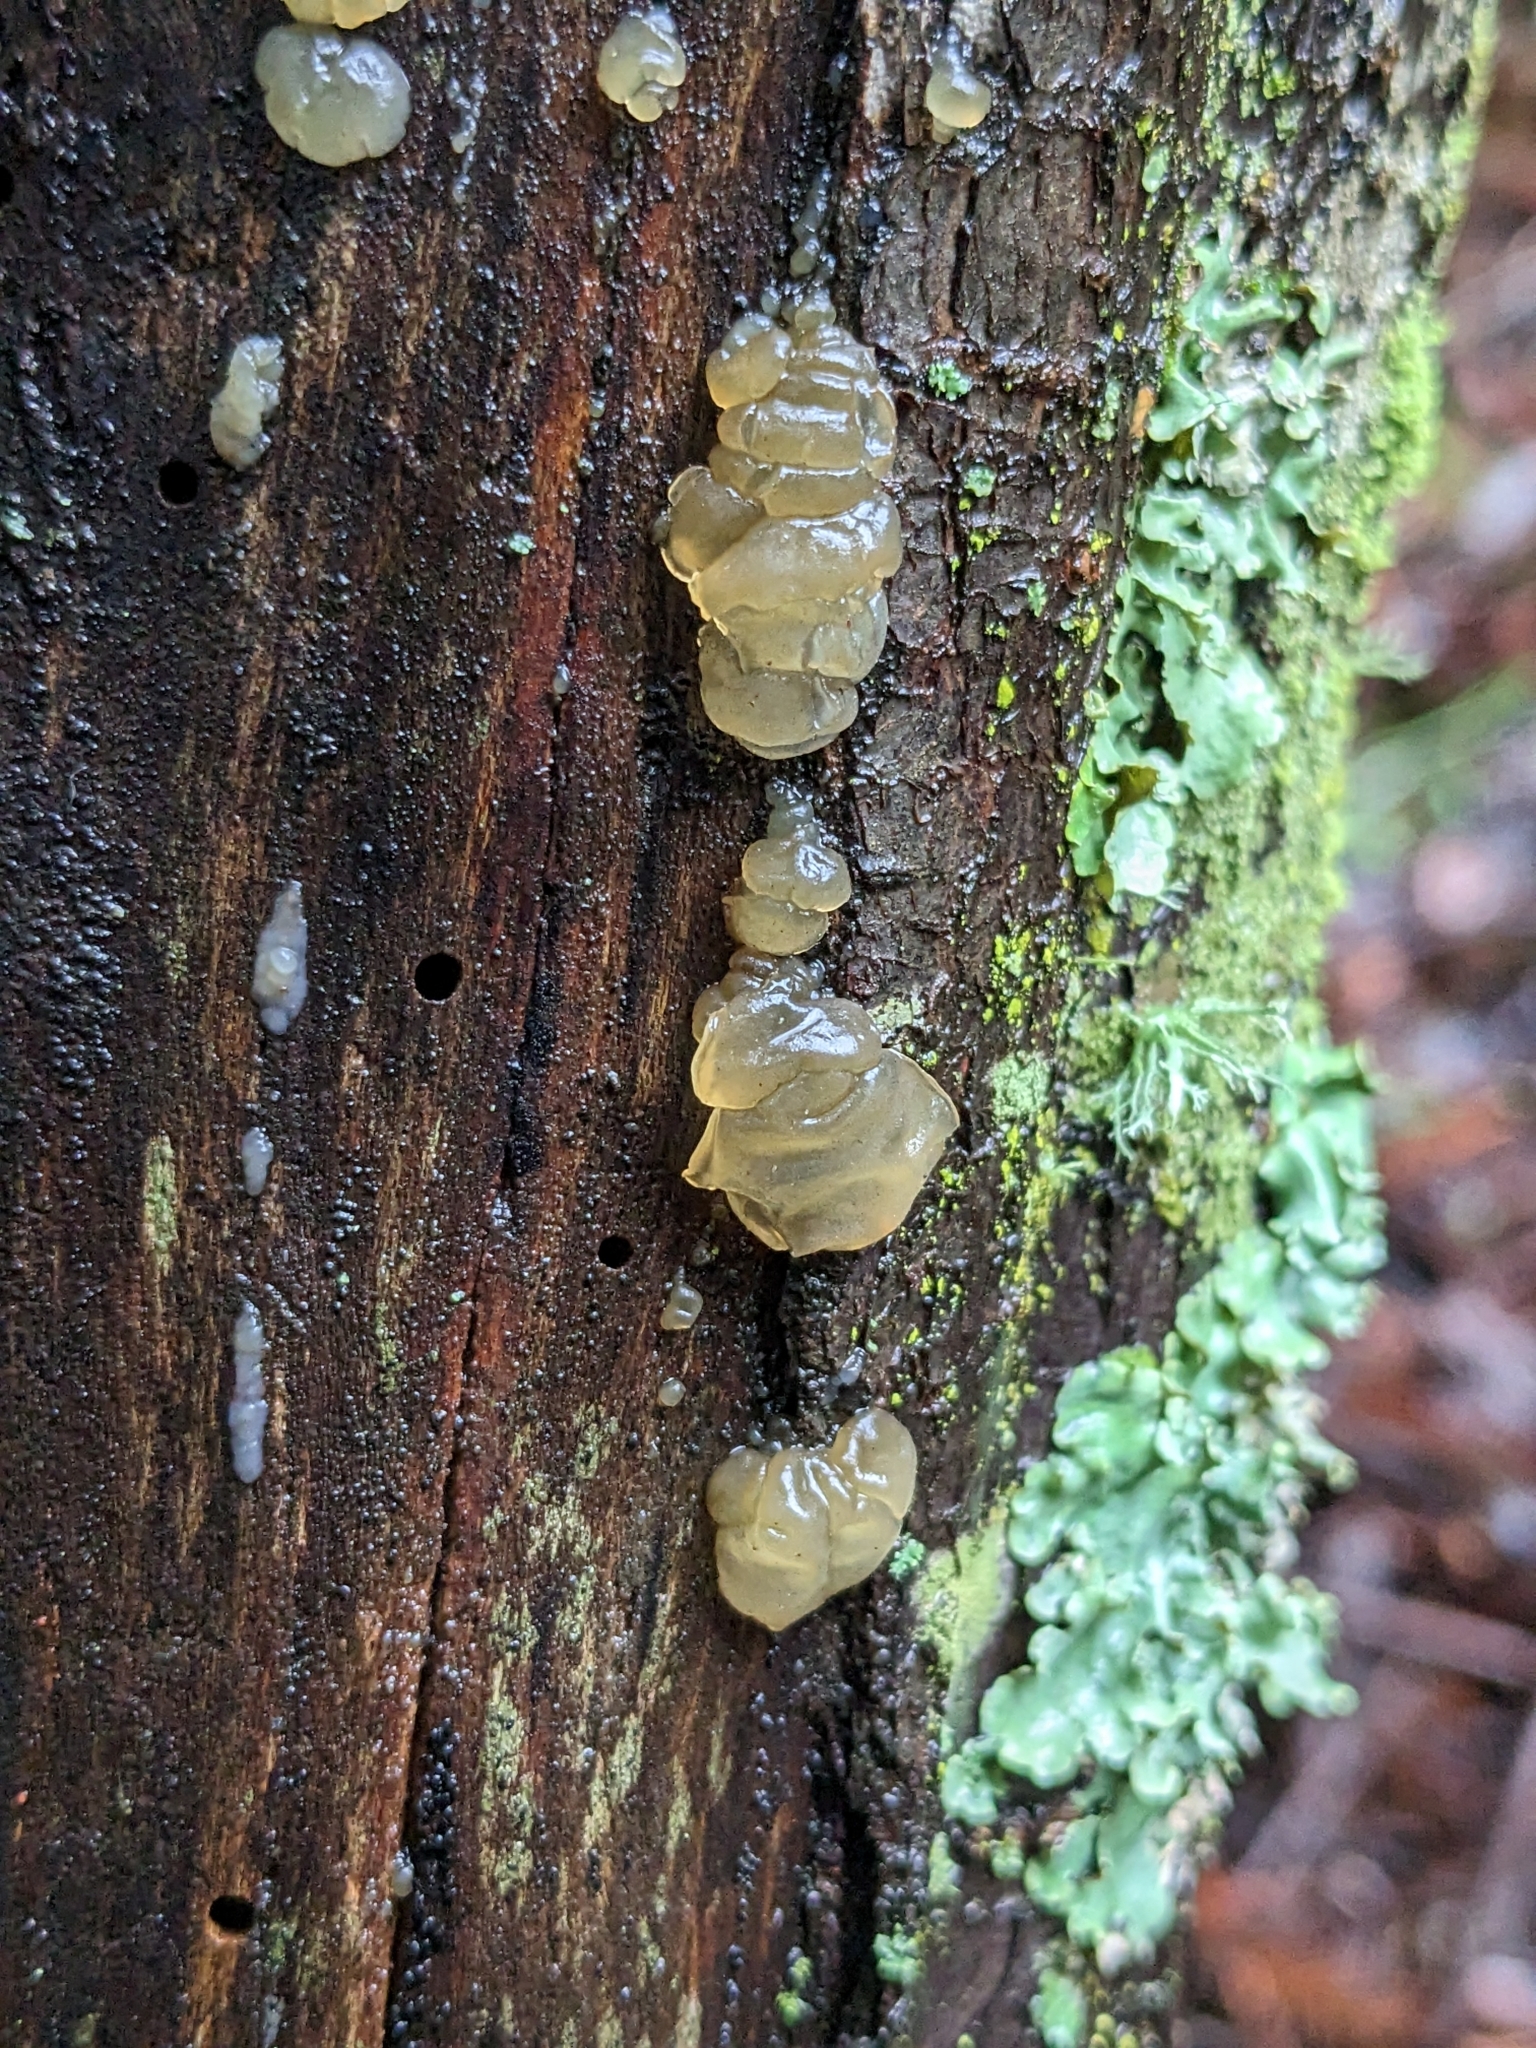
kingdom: Fungi
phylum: Basidiomycota
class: Agaricomycetes
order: Auriculariales
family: Hyaloriaceae
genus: Myxarium
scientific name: Myxarium nucleatum
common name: Crystal brain fungus
